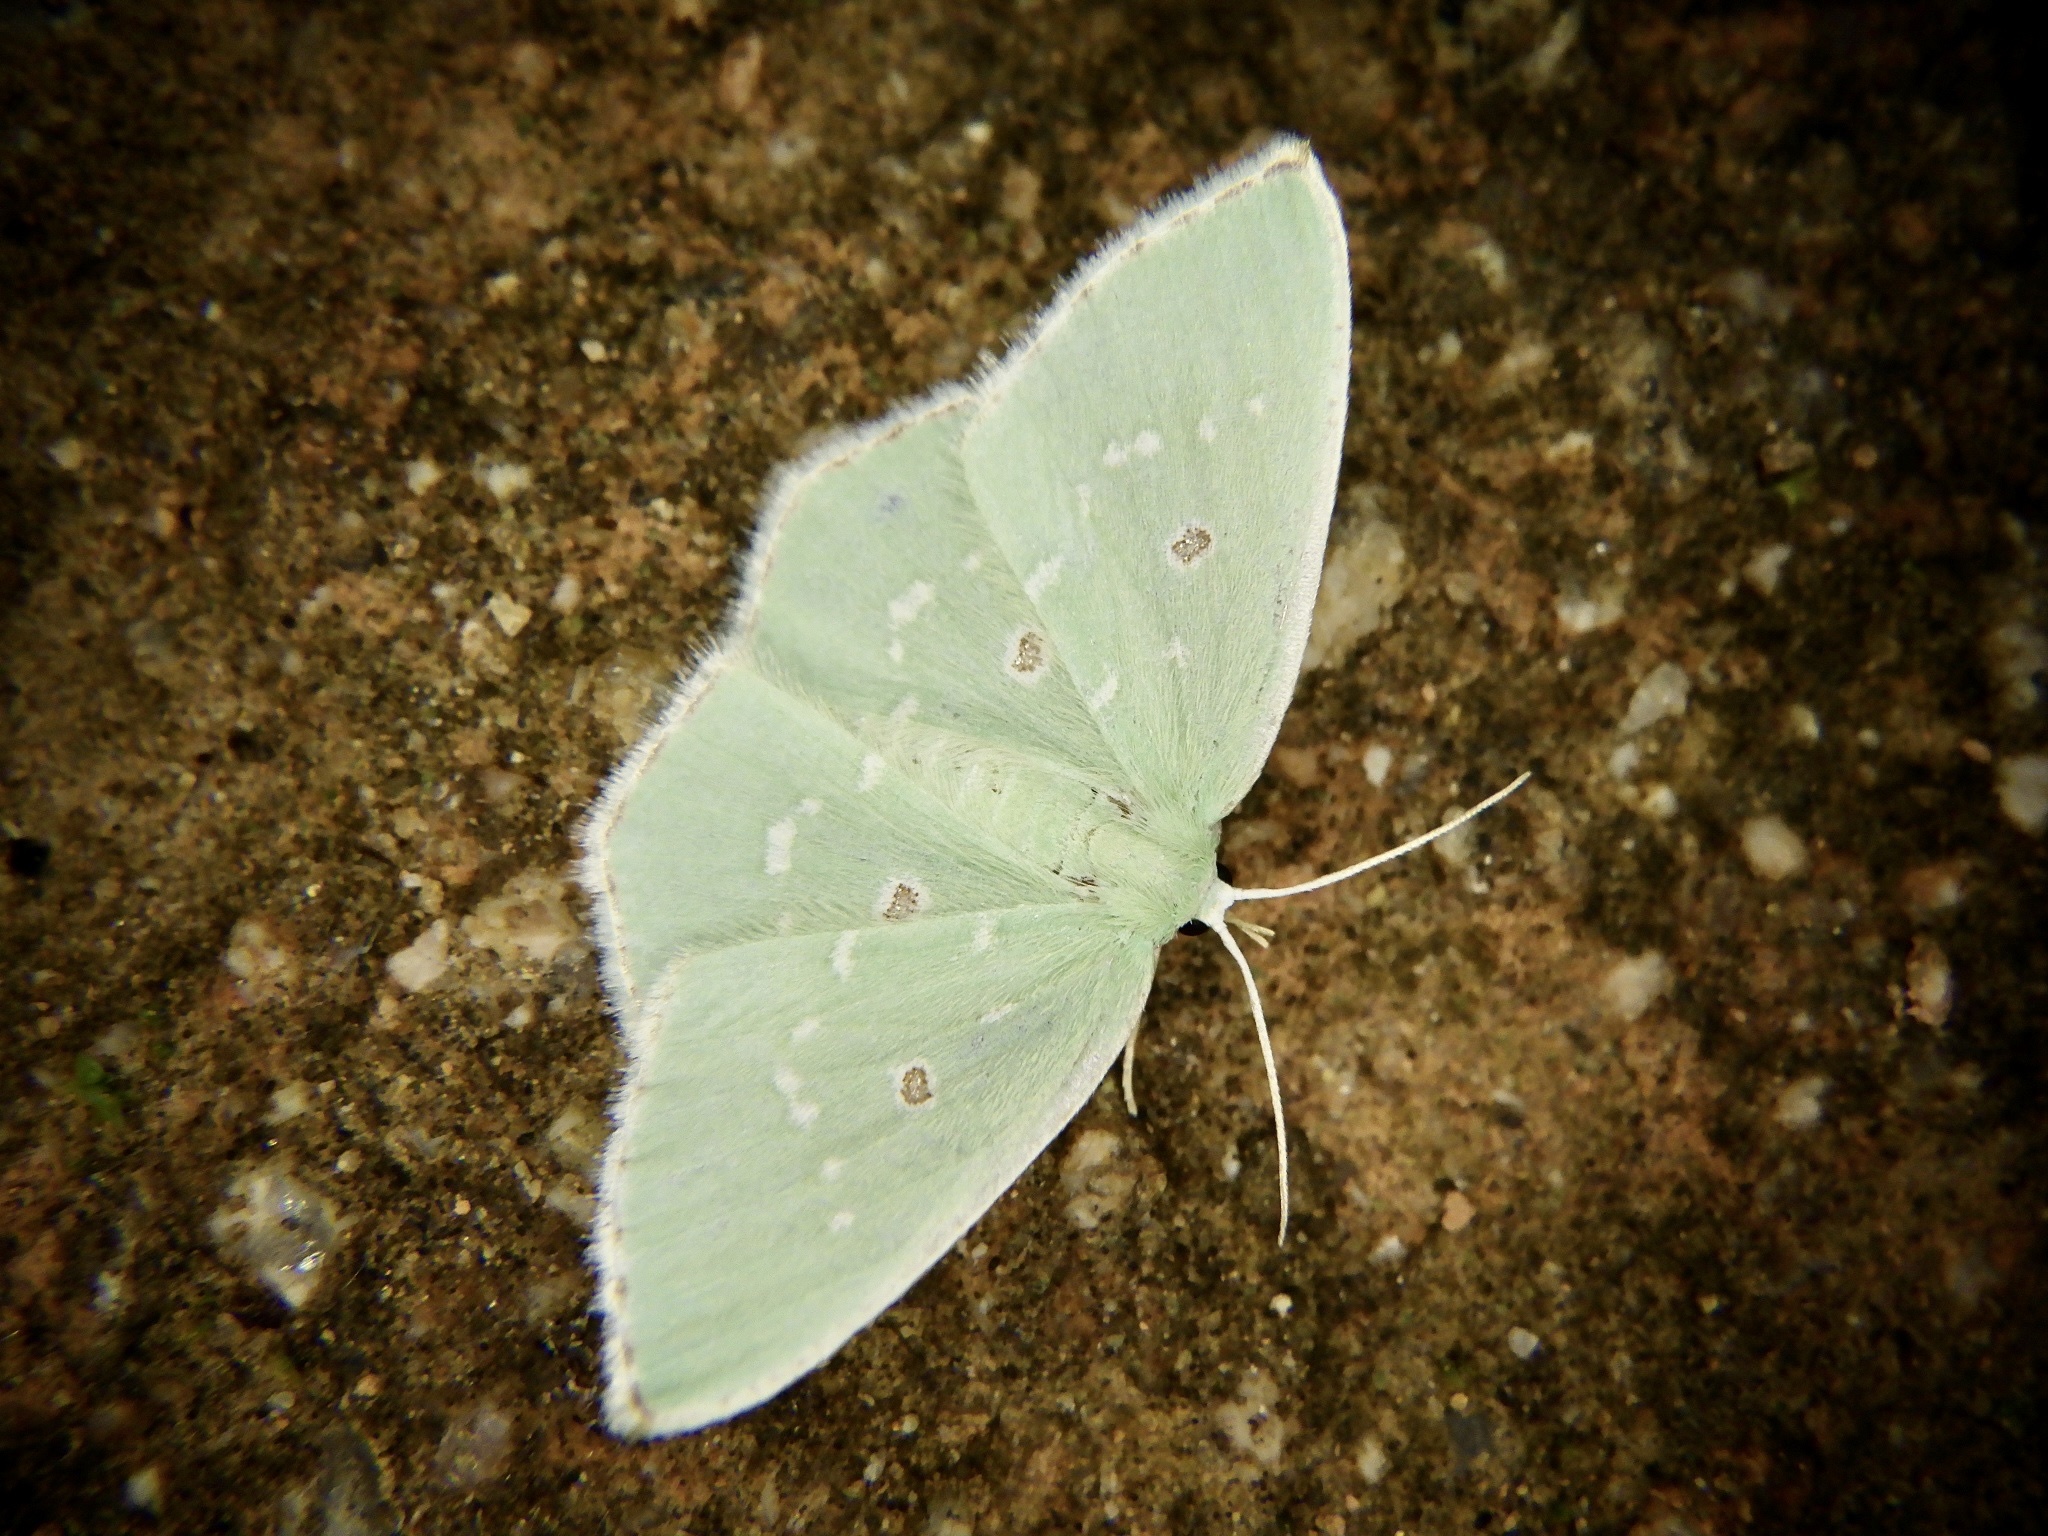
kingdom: Animalia
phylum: Arthropoda
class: Insecta
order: Lepidoptera
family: Geometridae
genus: Comostola
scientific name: Comostola subtiliaria
